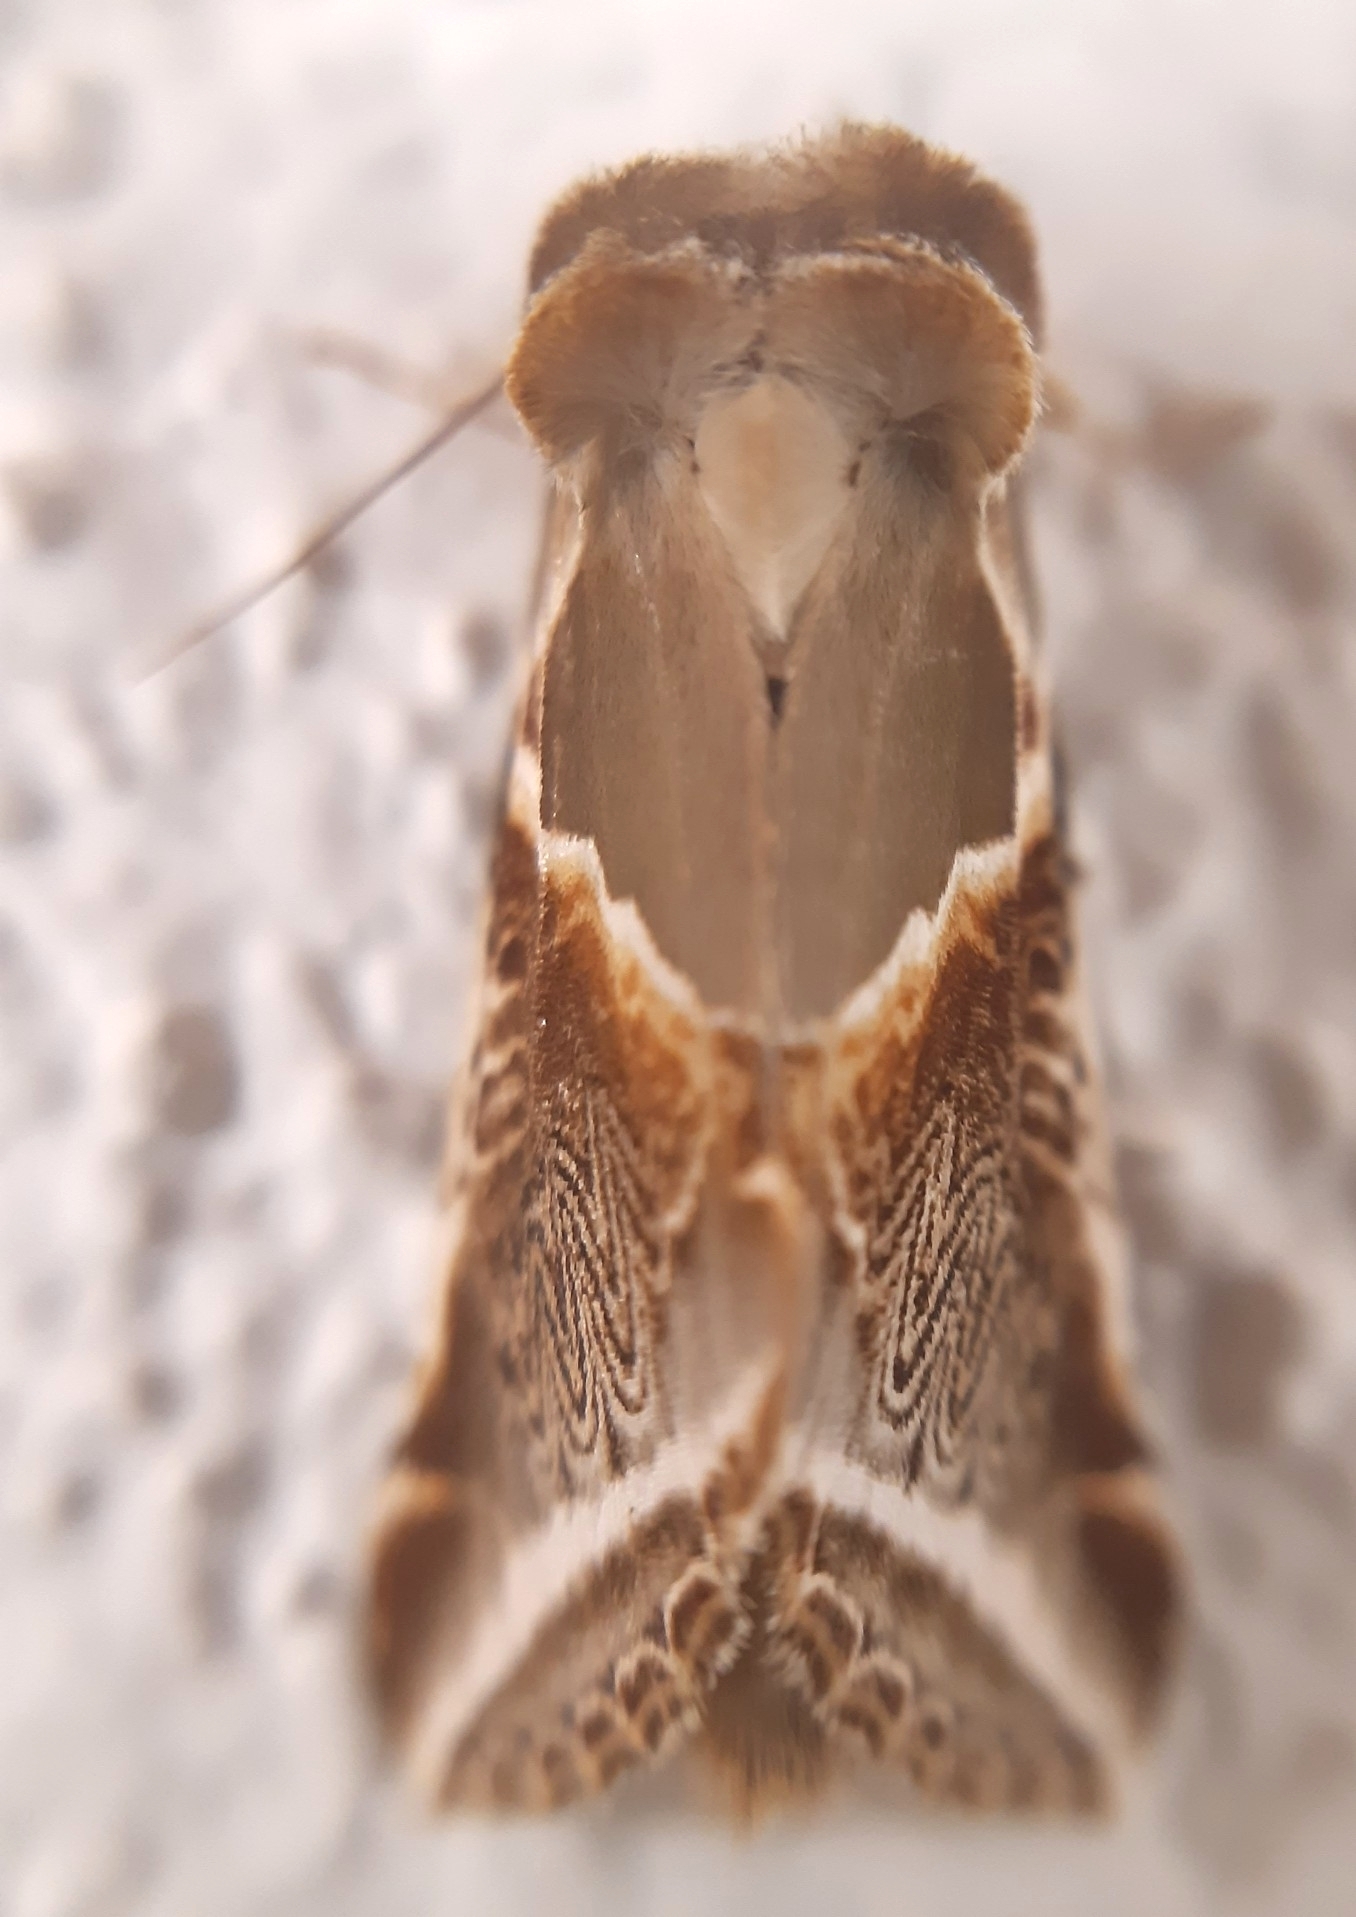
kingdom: Animalia
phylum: Arthropoda
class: Insecta
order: Lepidoptera
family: Drepanidae
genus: Habrosyne
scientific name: Habrosyne pyritoides
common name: Buff arches
